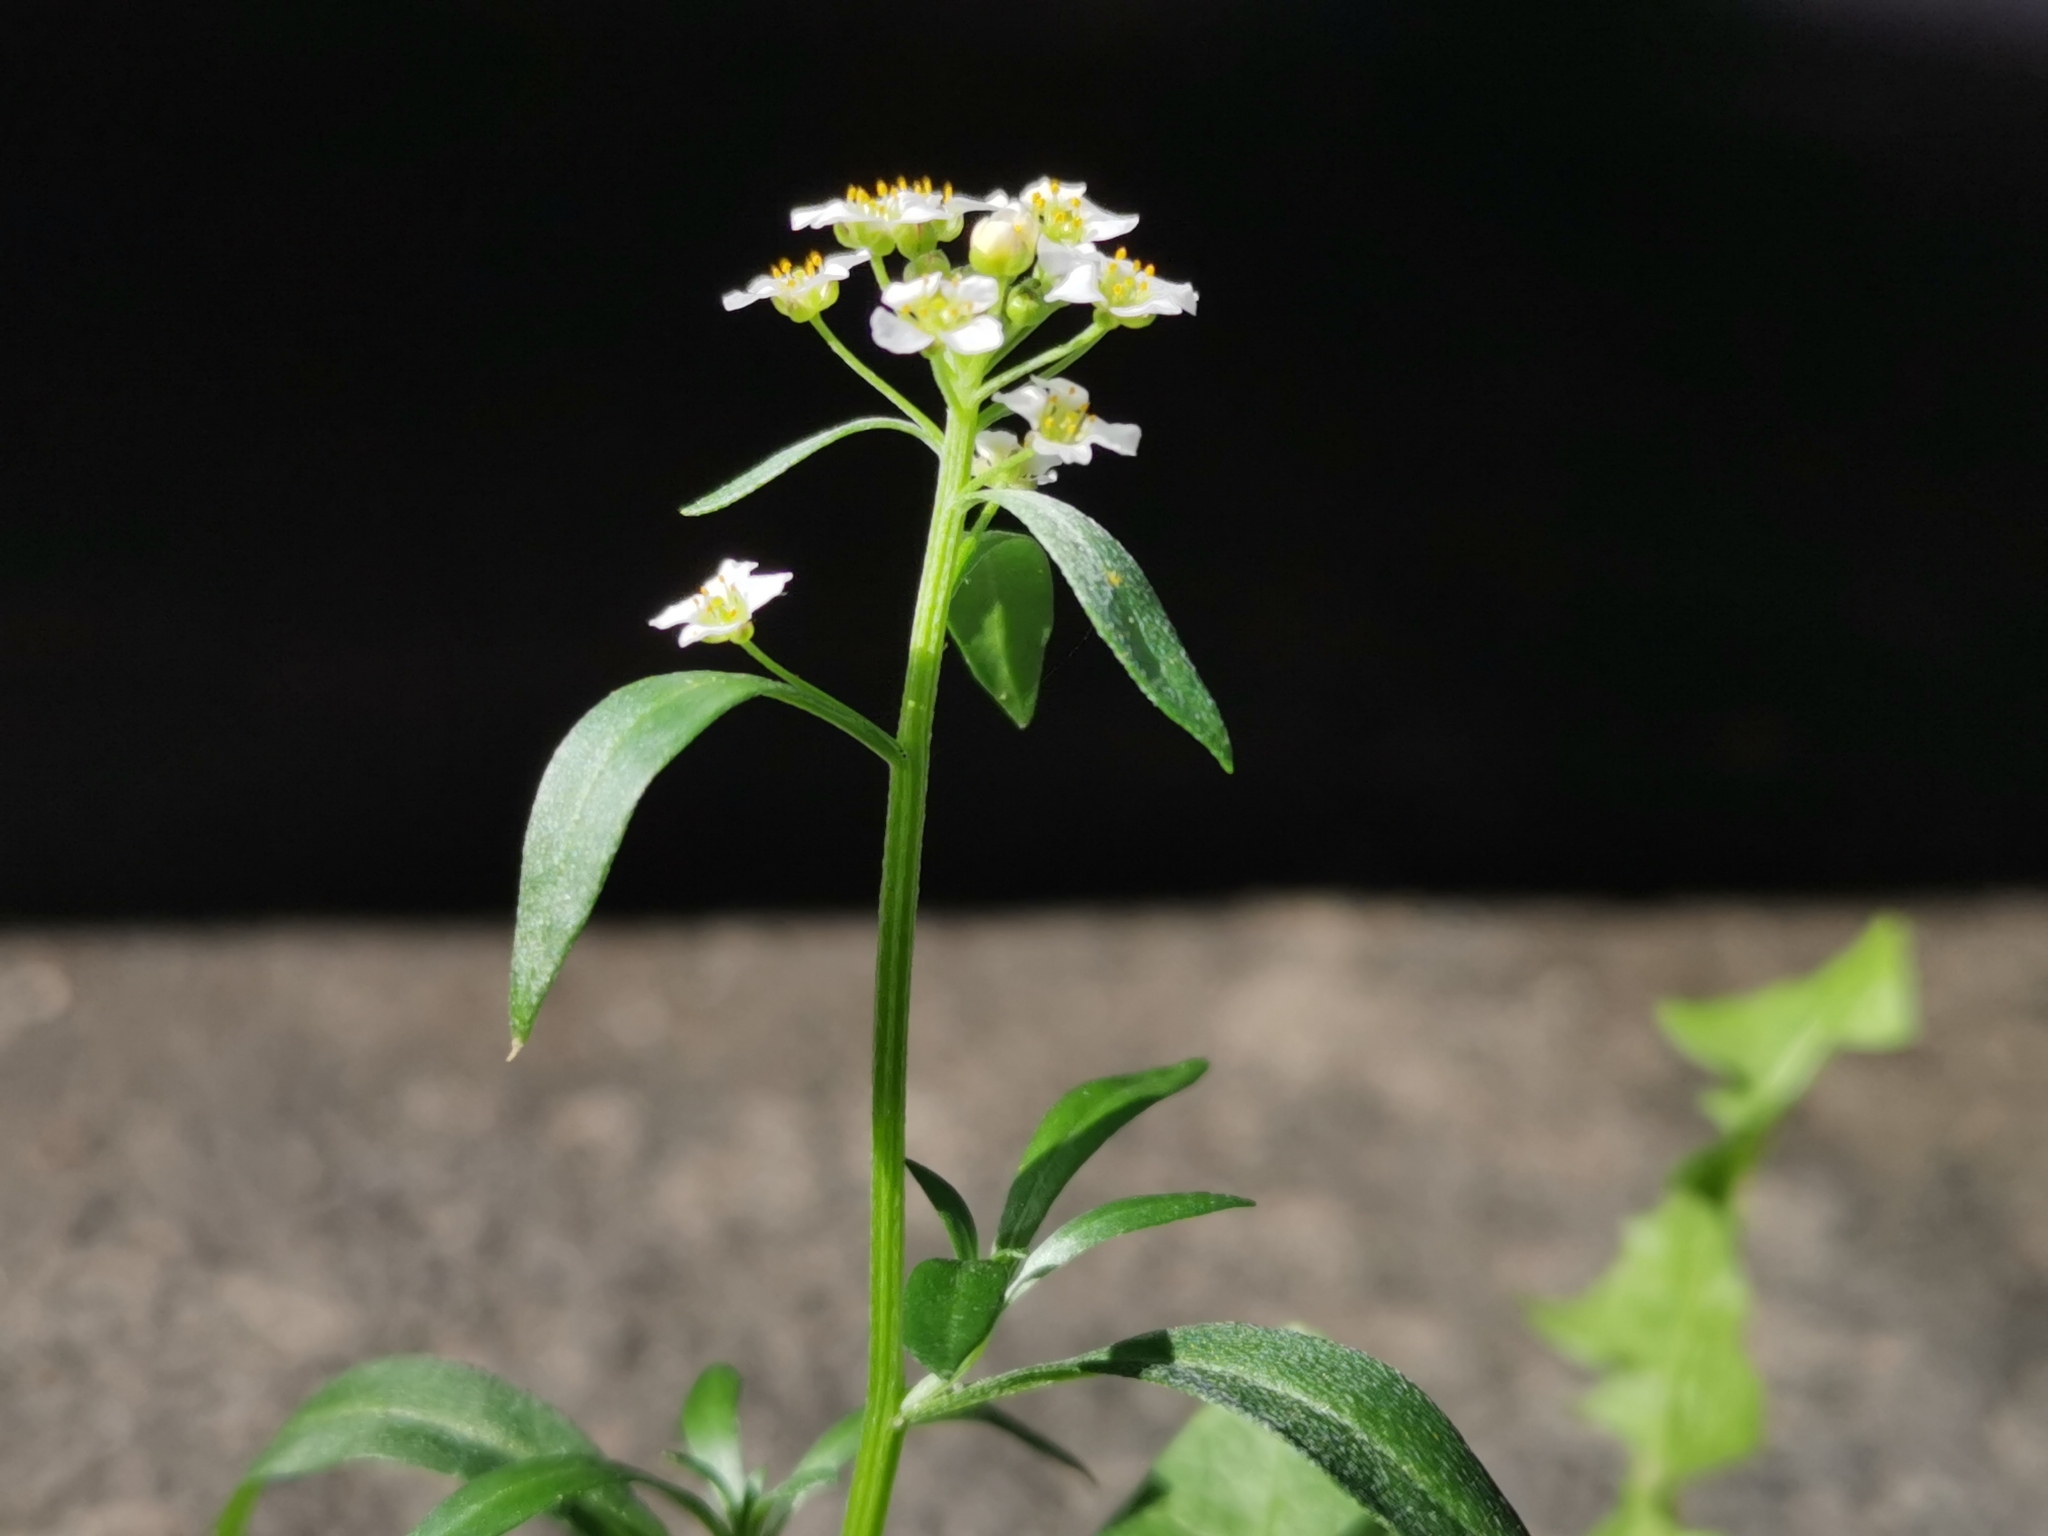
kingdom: Plantae
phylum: Tracheophyta
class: Magnoliopsida
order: Brassicales
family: Brassicaceae
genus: Lobularia
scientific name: Lobularia maritima
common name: Sweet alison
